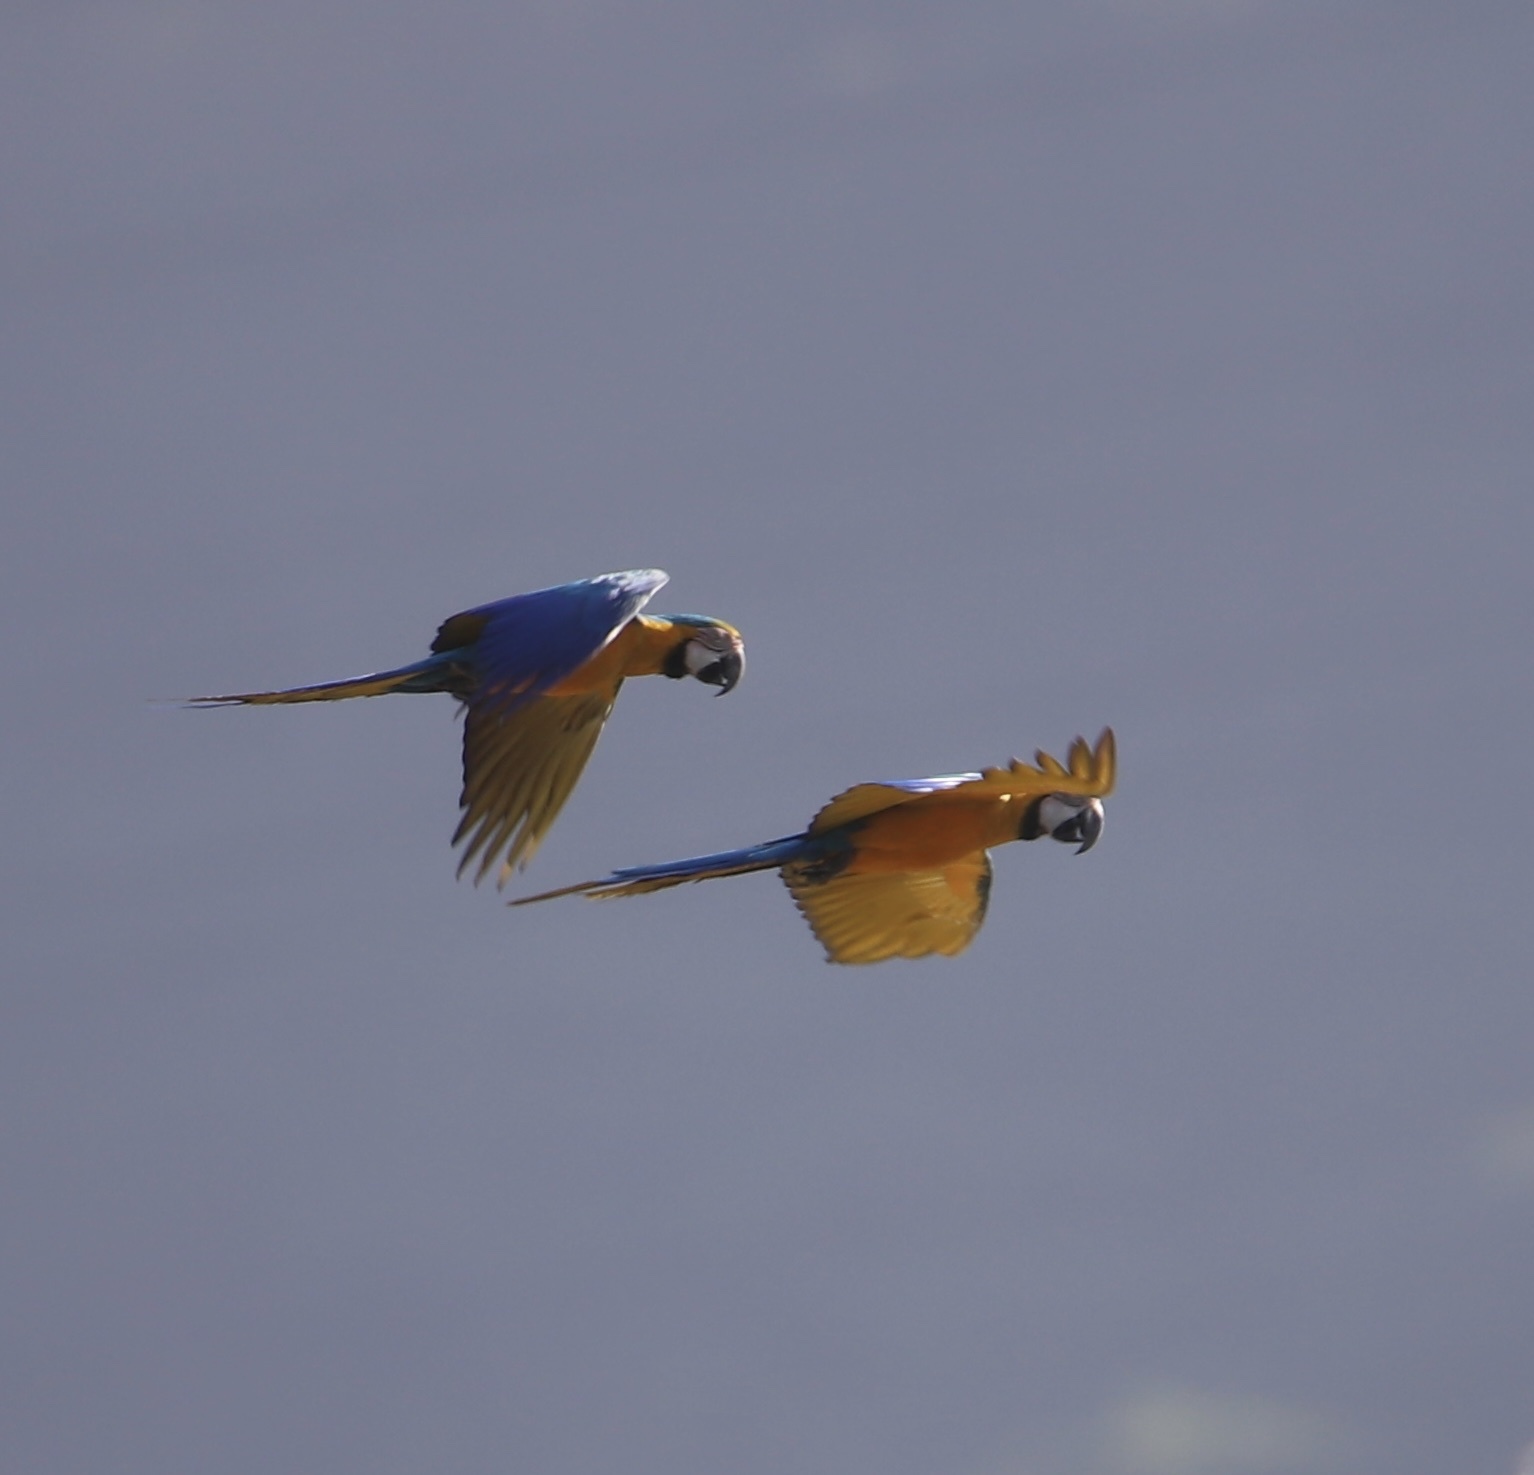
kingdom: Animalia
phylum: Chordata
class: Aves
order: Psittaciformes
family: Psittacidae
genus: Ara
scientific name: Ara ararauna
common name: Blue-and-yellow macaw
